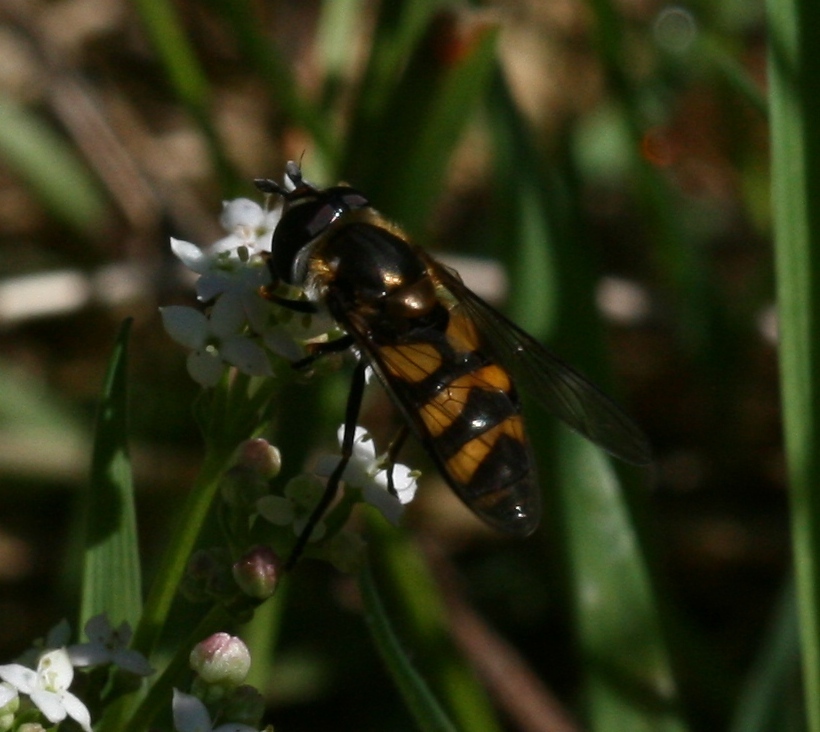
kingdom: Animalia
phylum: Arthropoda
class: Insecta
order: Diptera
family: Syrphidae
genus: Didea
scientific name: Didea fasciata
